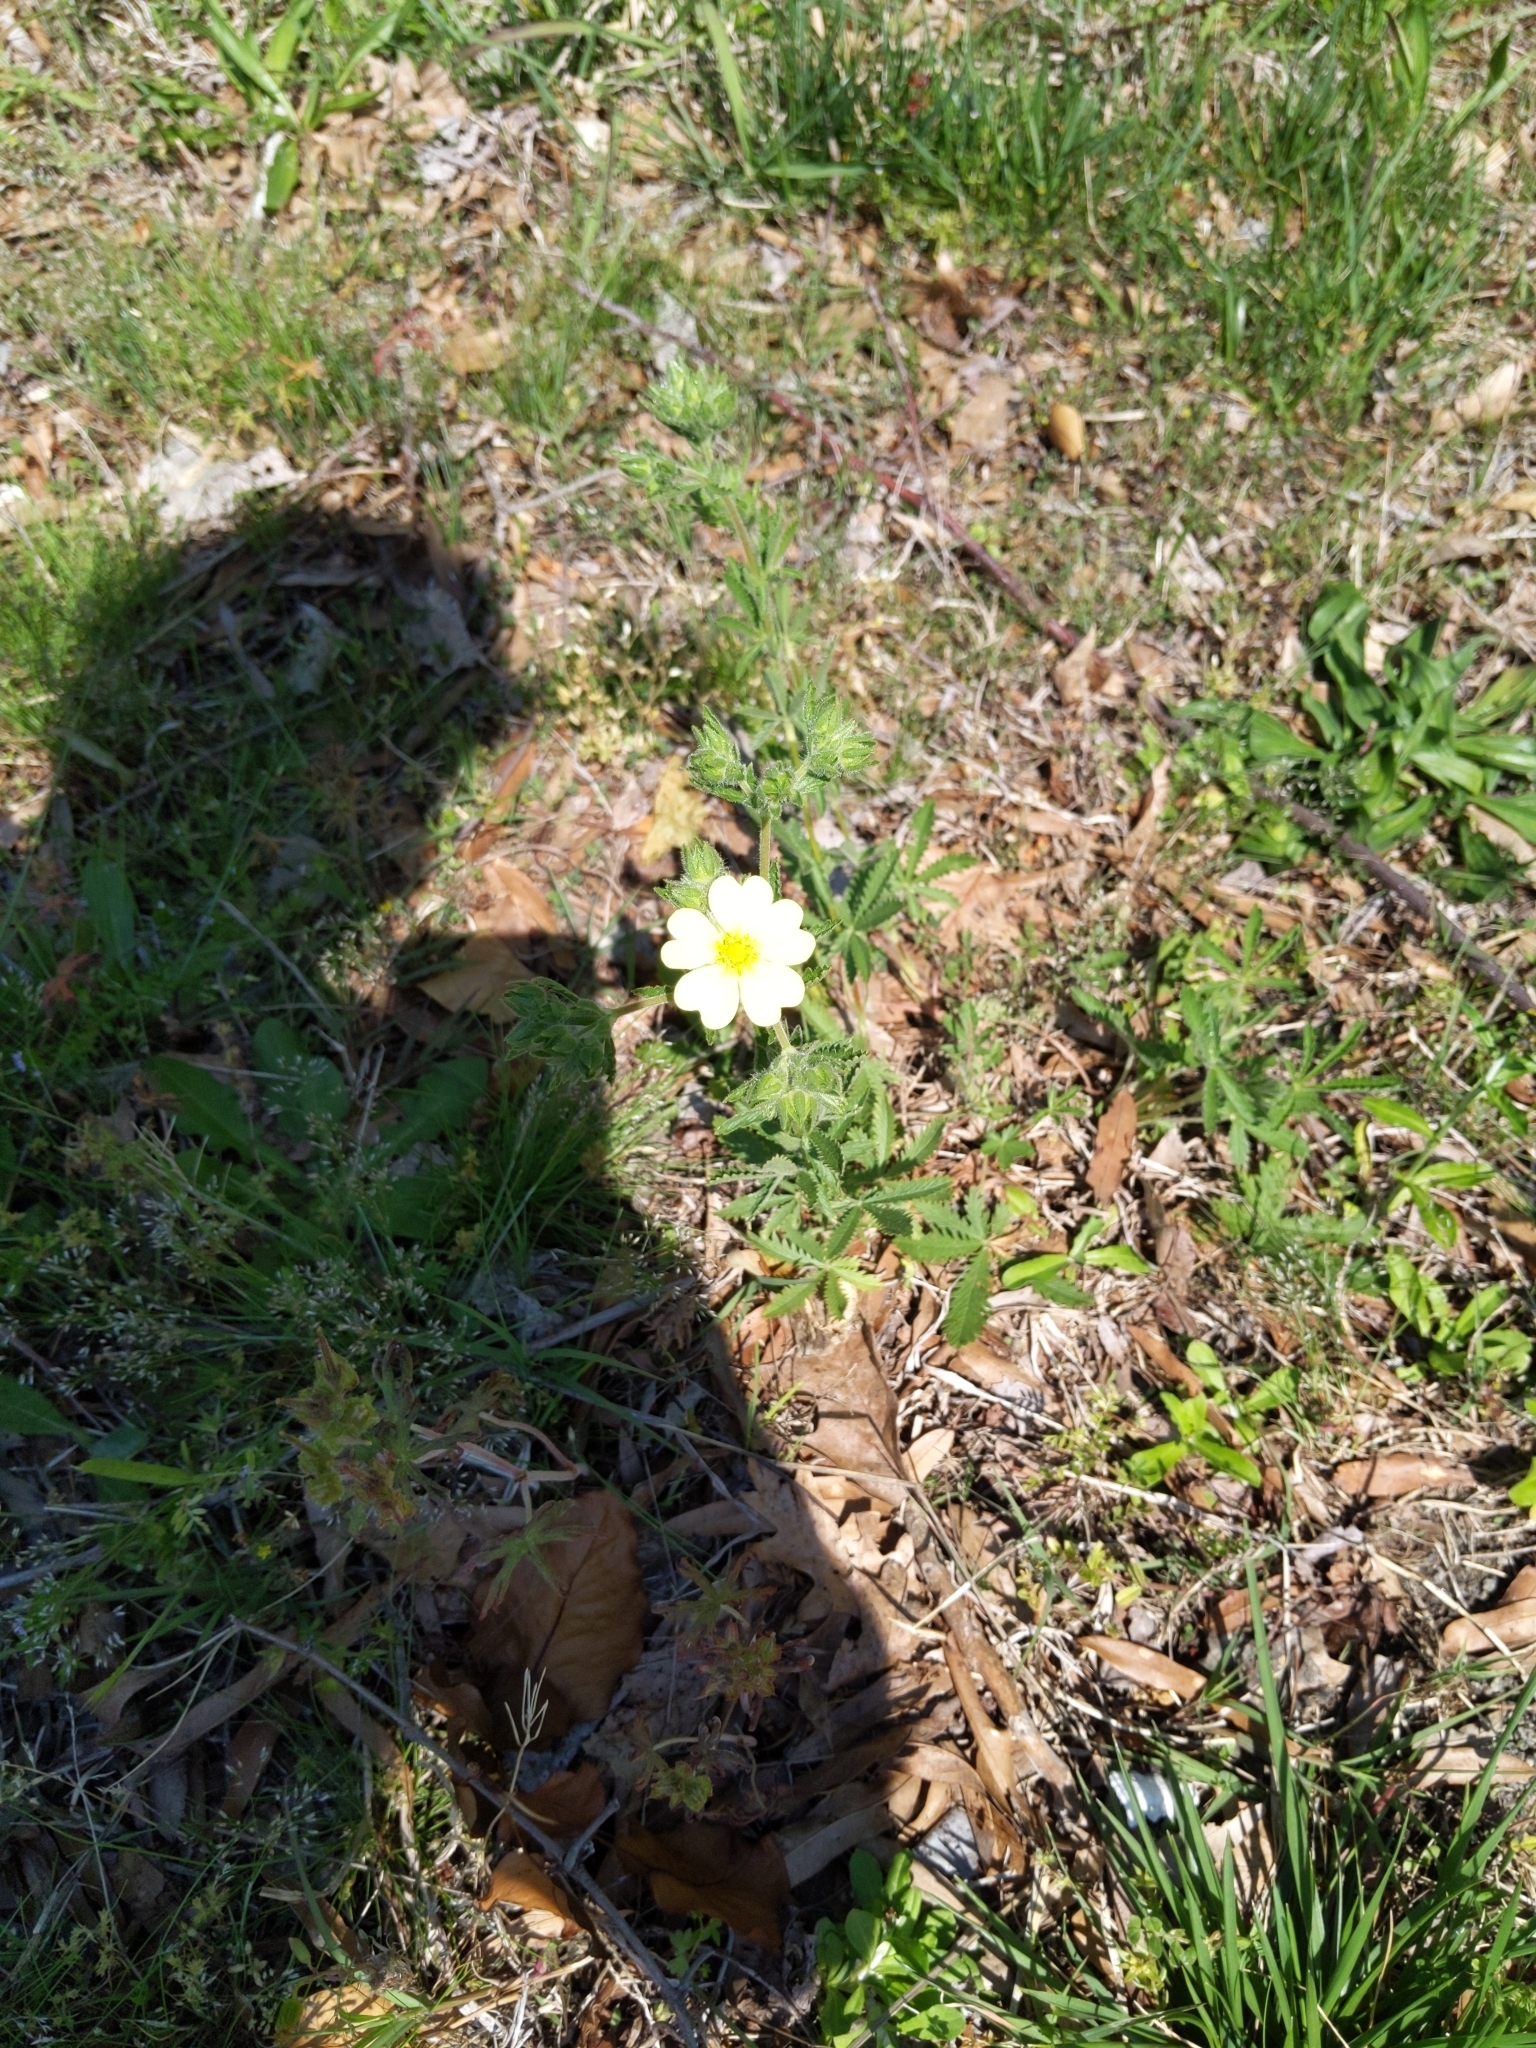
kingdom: Plantae
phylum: Tracheophyta
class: Magnoliopsida
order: Rosales
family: Rosaceae
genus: Potentilla
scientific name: Potentilla recta
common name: Sulphur cinquefoil
